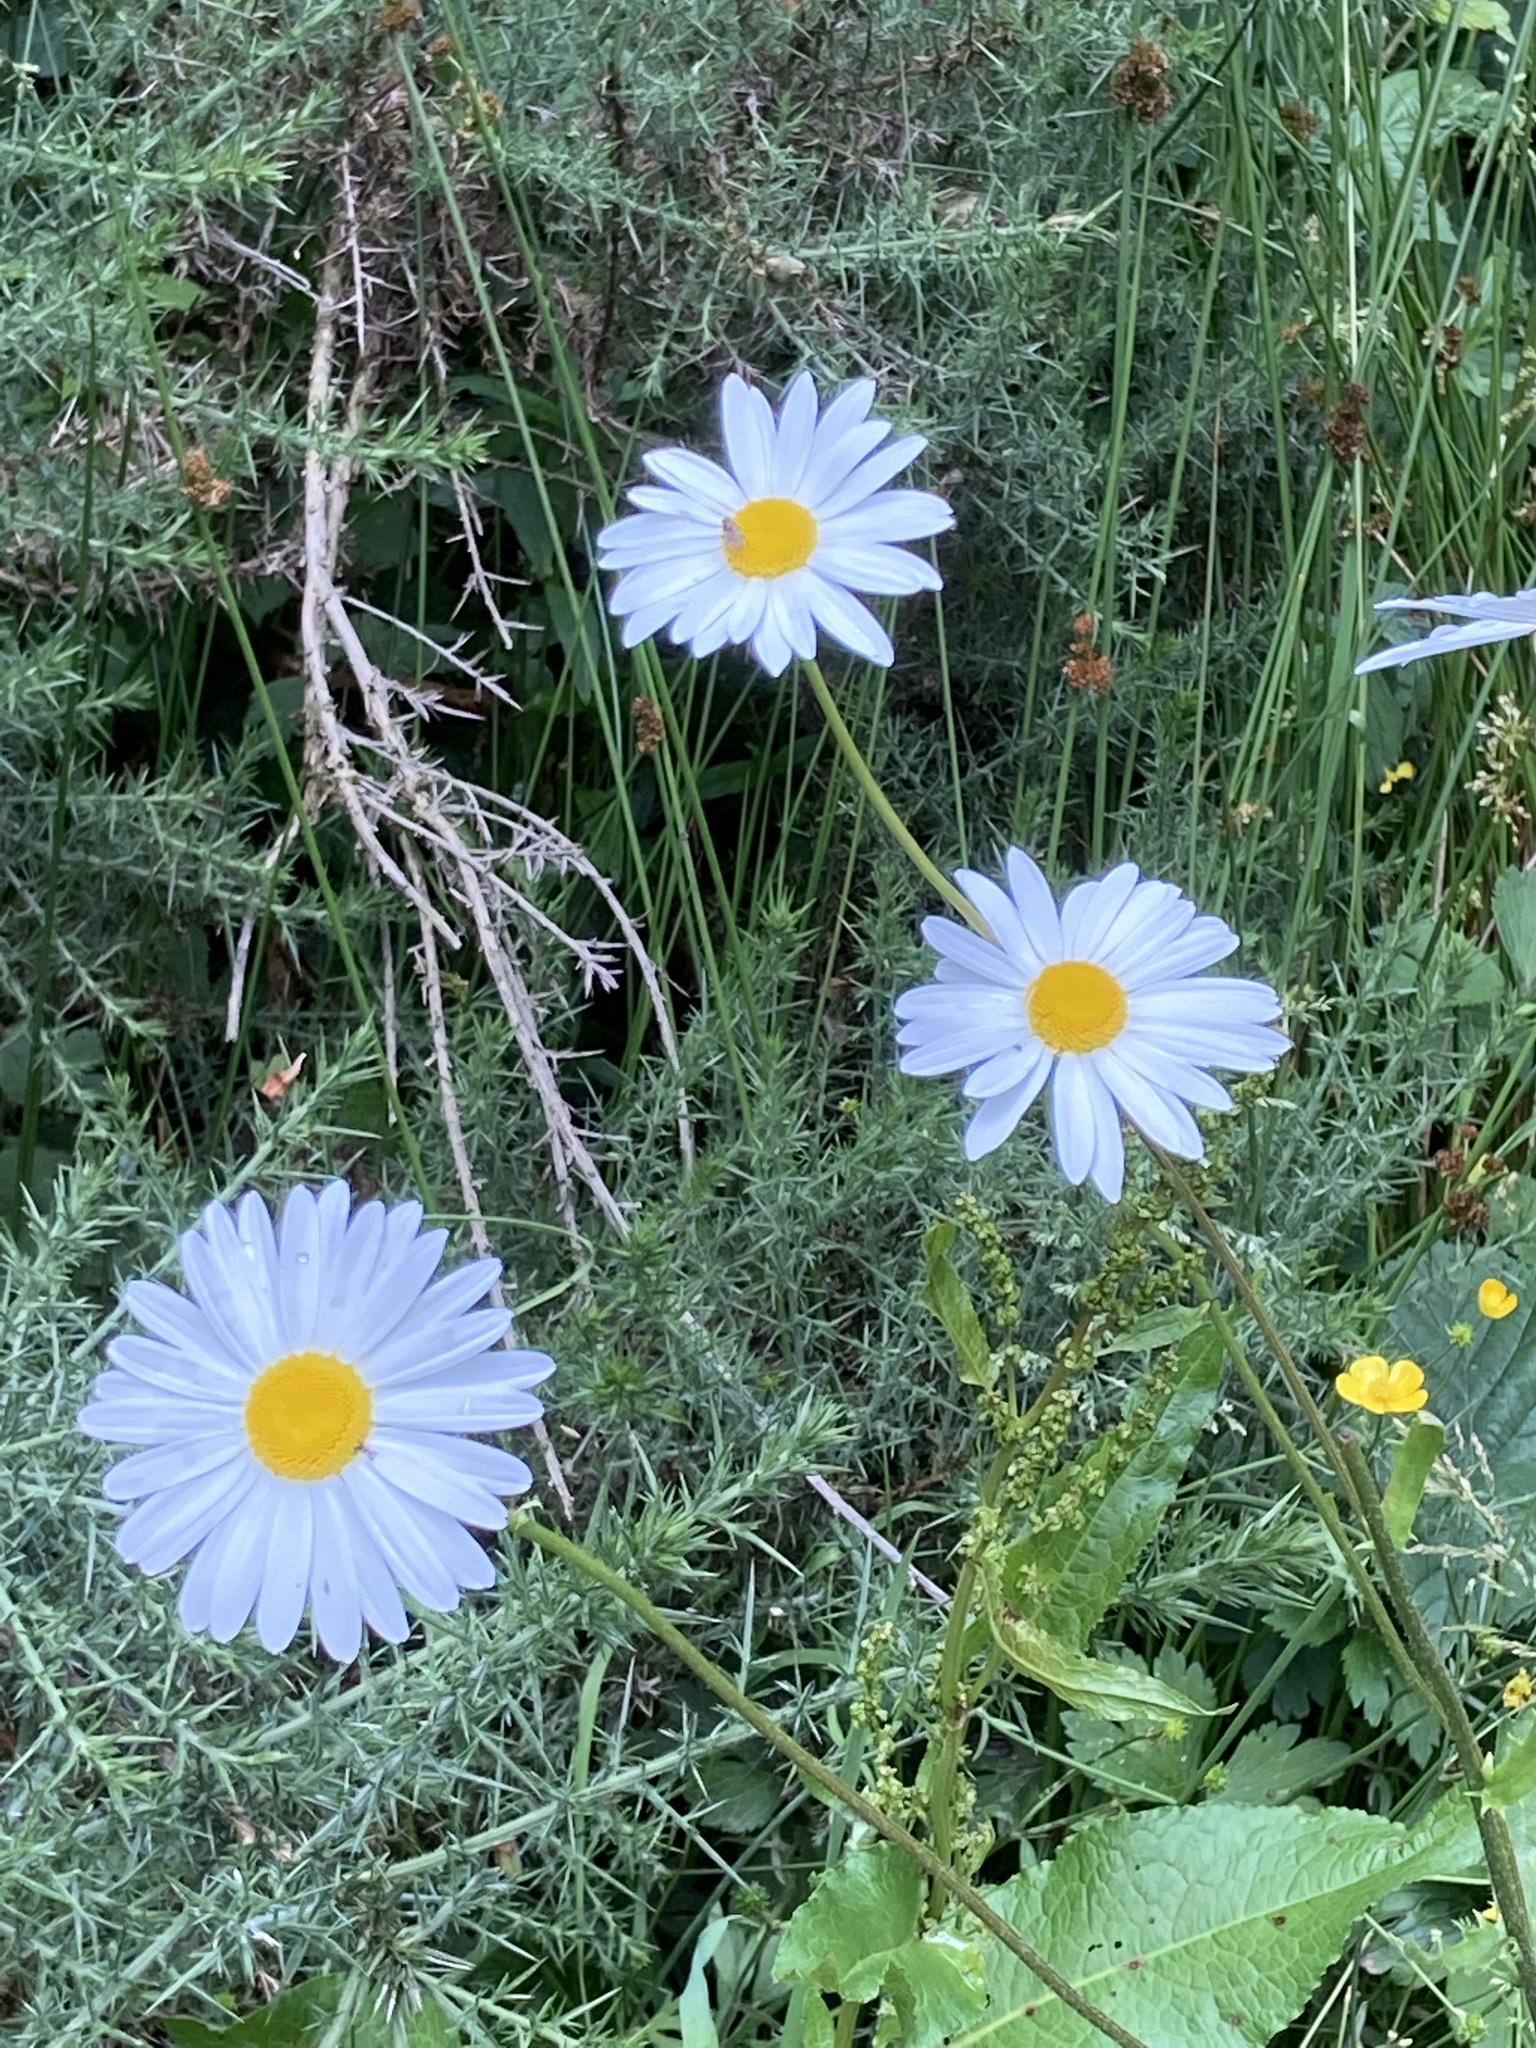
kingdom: Plantae
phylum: Tracheophyta
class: Magnoliopsida
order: Asterales
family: Asteraceae
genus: Leucanthemum
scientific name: Leucanthemum vulgare
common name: Oxeye daisy
